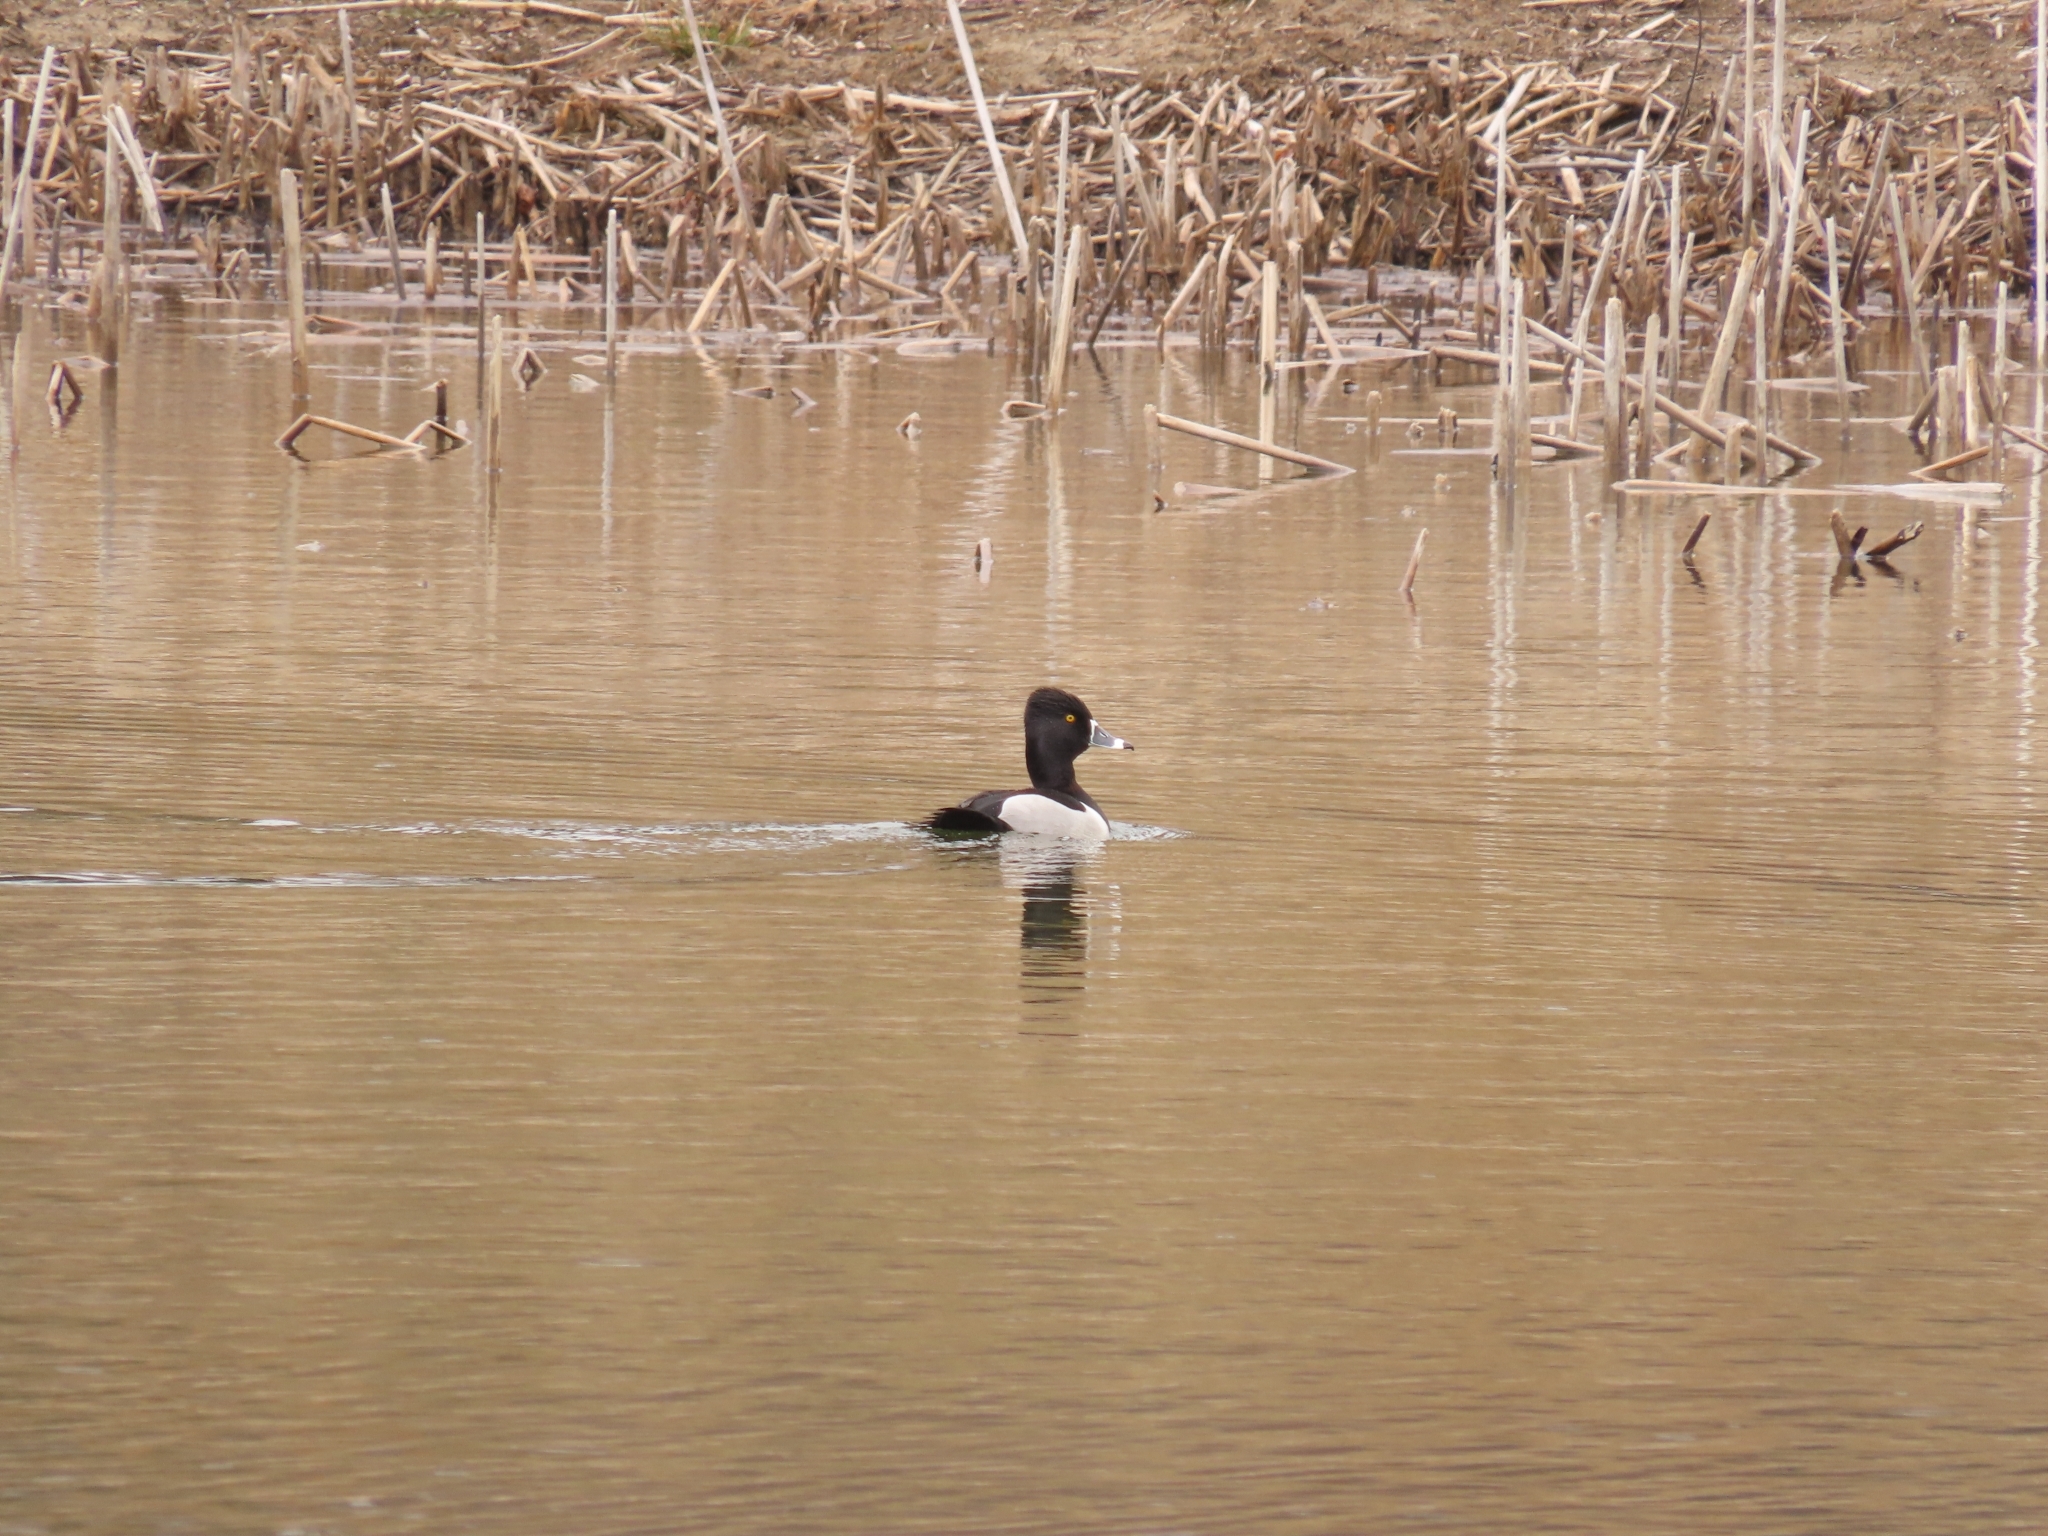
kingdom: Animalia
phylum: Chordata
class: Aves
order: Anseriformes
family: Anatidae
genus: Aythya
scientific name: Aythya collaris
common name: Ring-necked duck
